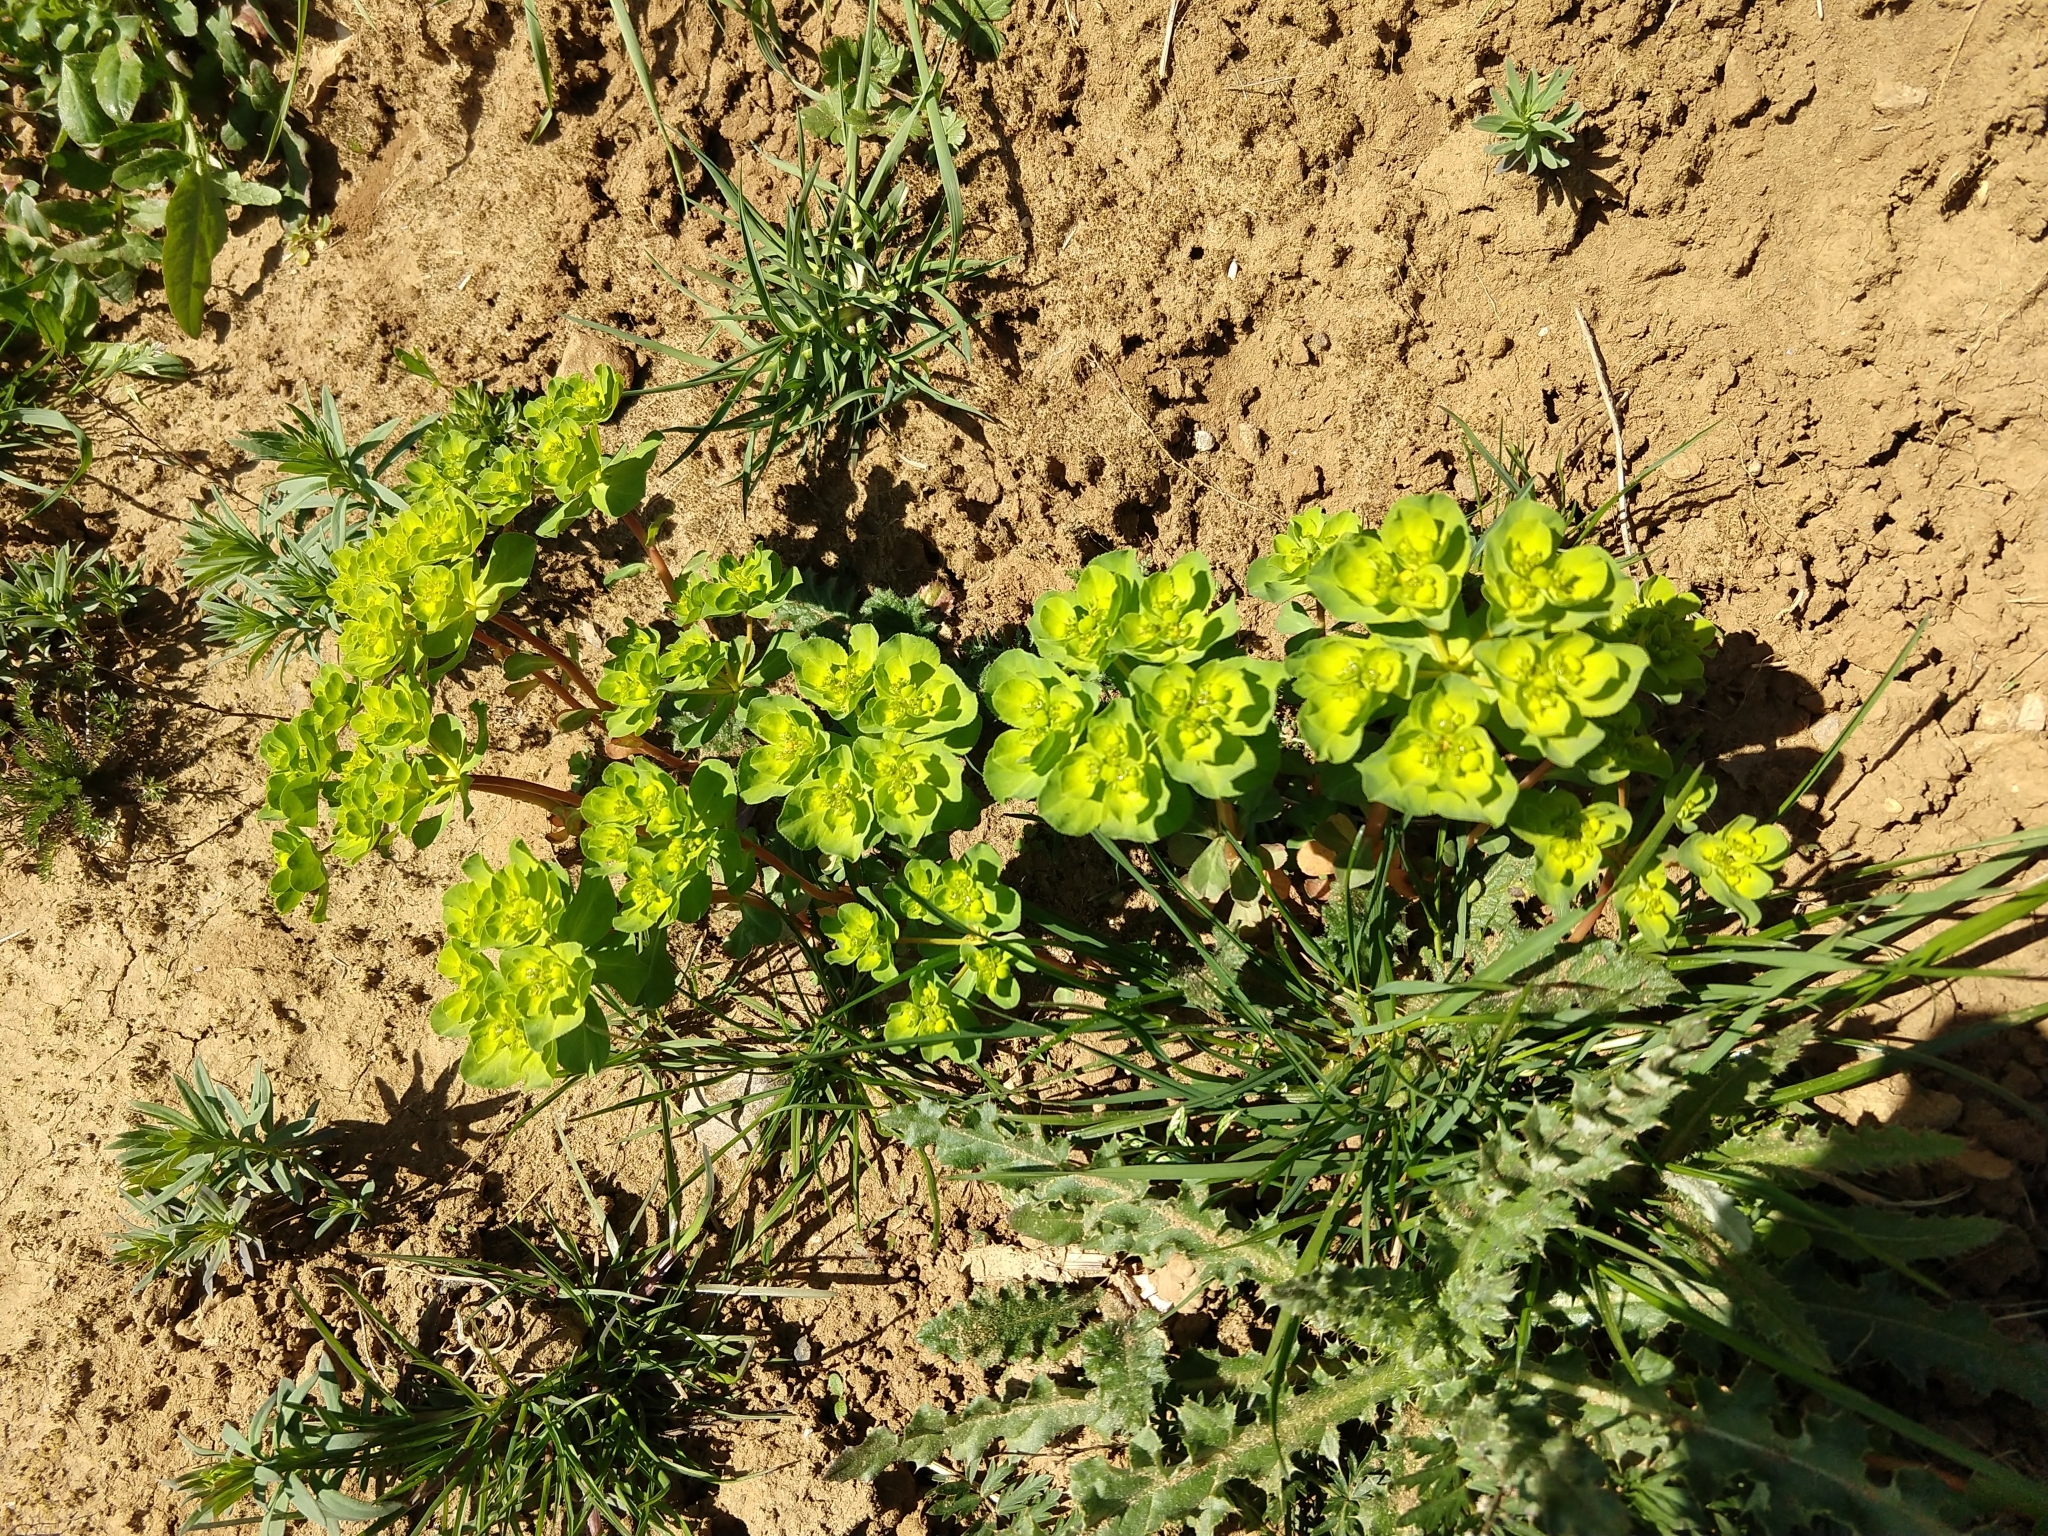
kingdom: Plantae
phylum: Tracheophyta
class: Magnoliopsida
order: Malpighiales
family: Euphorbiaceae
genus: Euphorbia
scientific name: Euphorbia helioscopia
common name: Sun spurge
